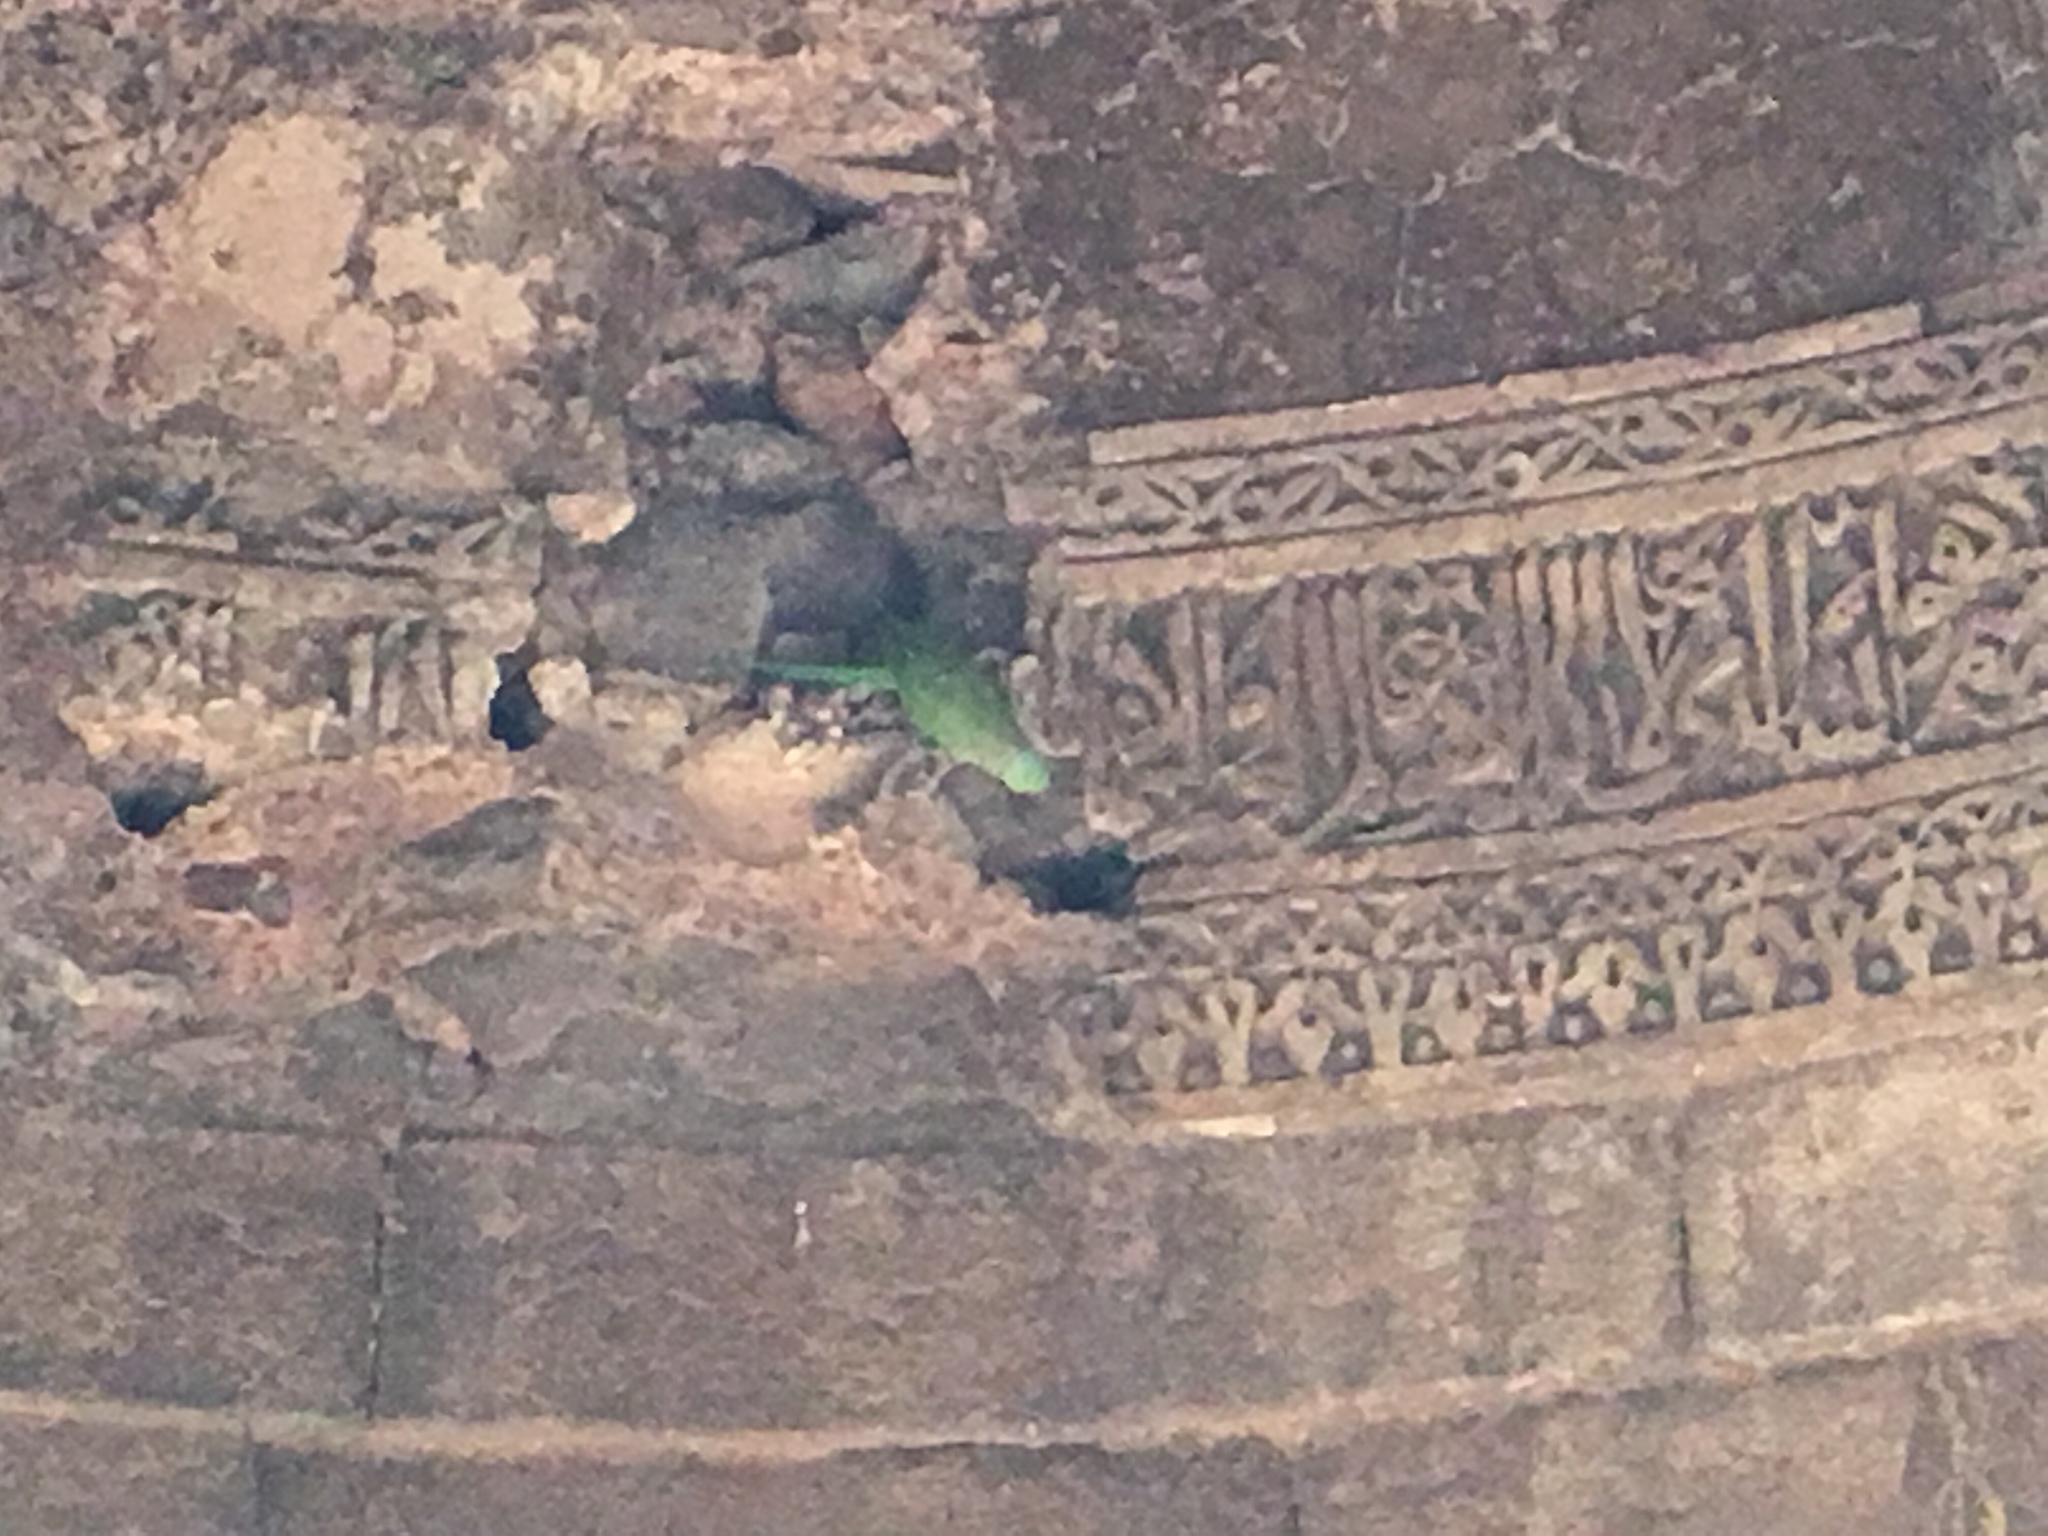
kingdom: Animalia
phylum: Chordata
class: Aves
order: Psittaciformes
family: Psittacidae
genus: Psittacula
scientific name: Psittacula krameri
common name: Rose-ringed parakeet
